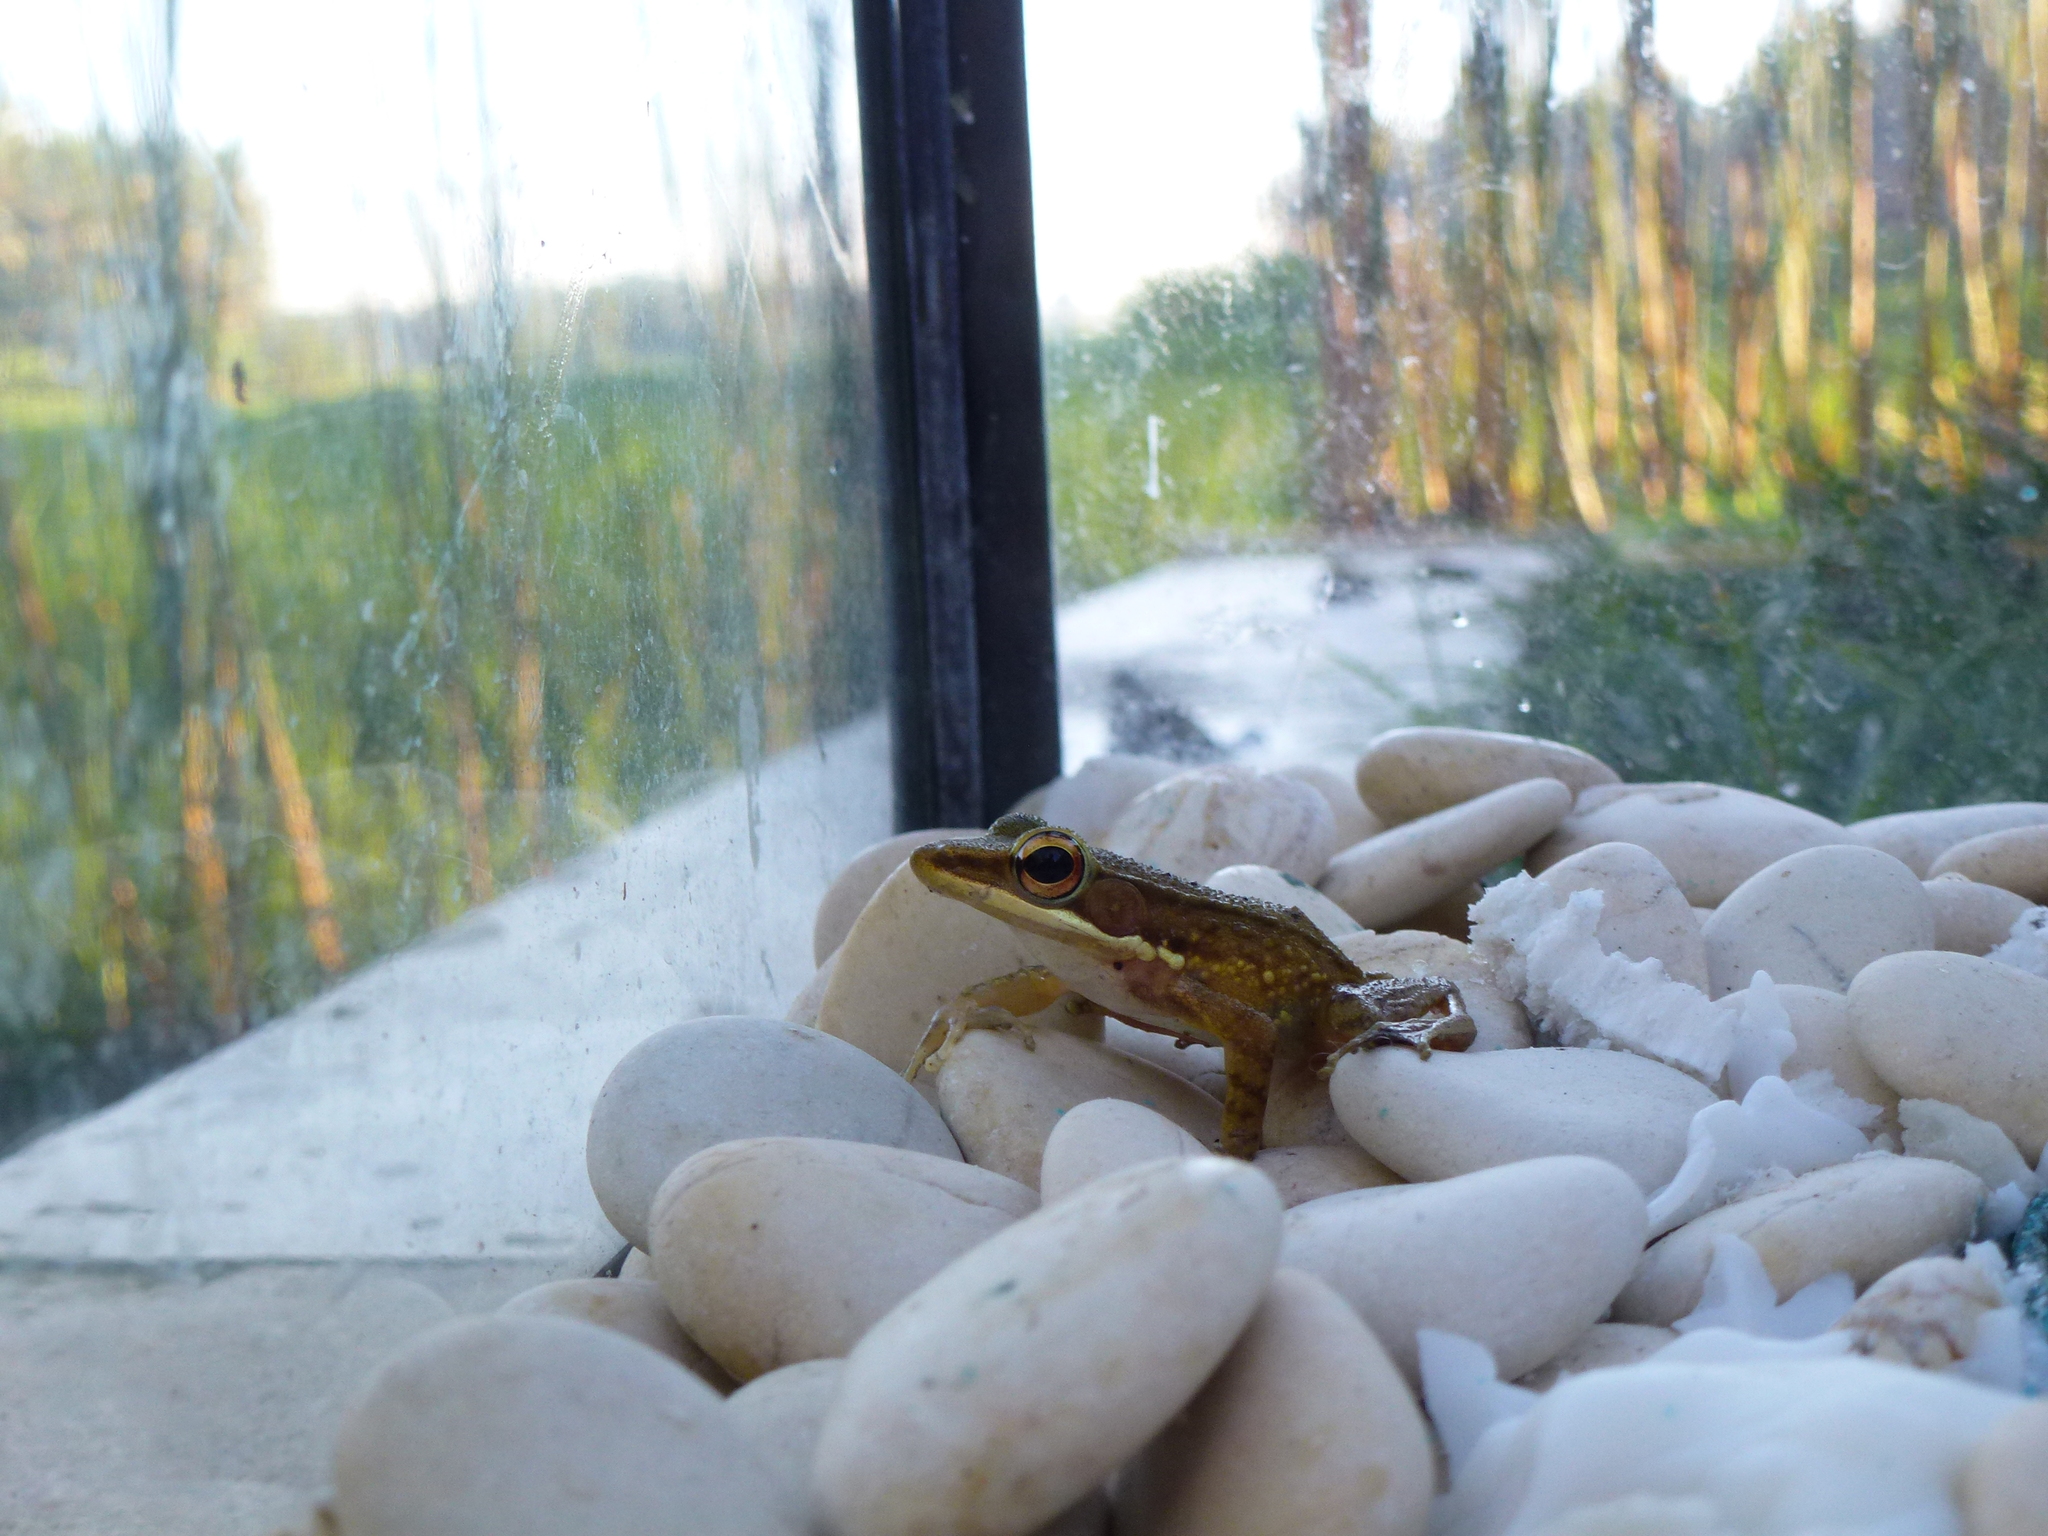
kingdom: Animalia
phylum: Chordata
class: Amphibia
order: Anura
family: Ranidae
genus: Chalcorana
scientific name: Chalcorana chalconota
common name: Schlegel's frog
